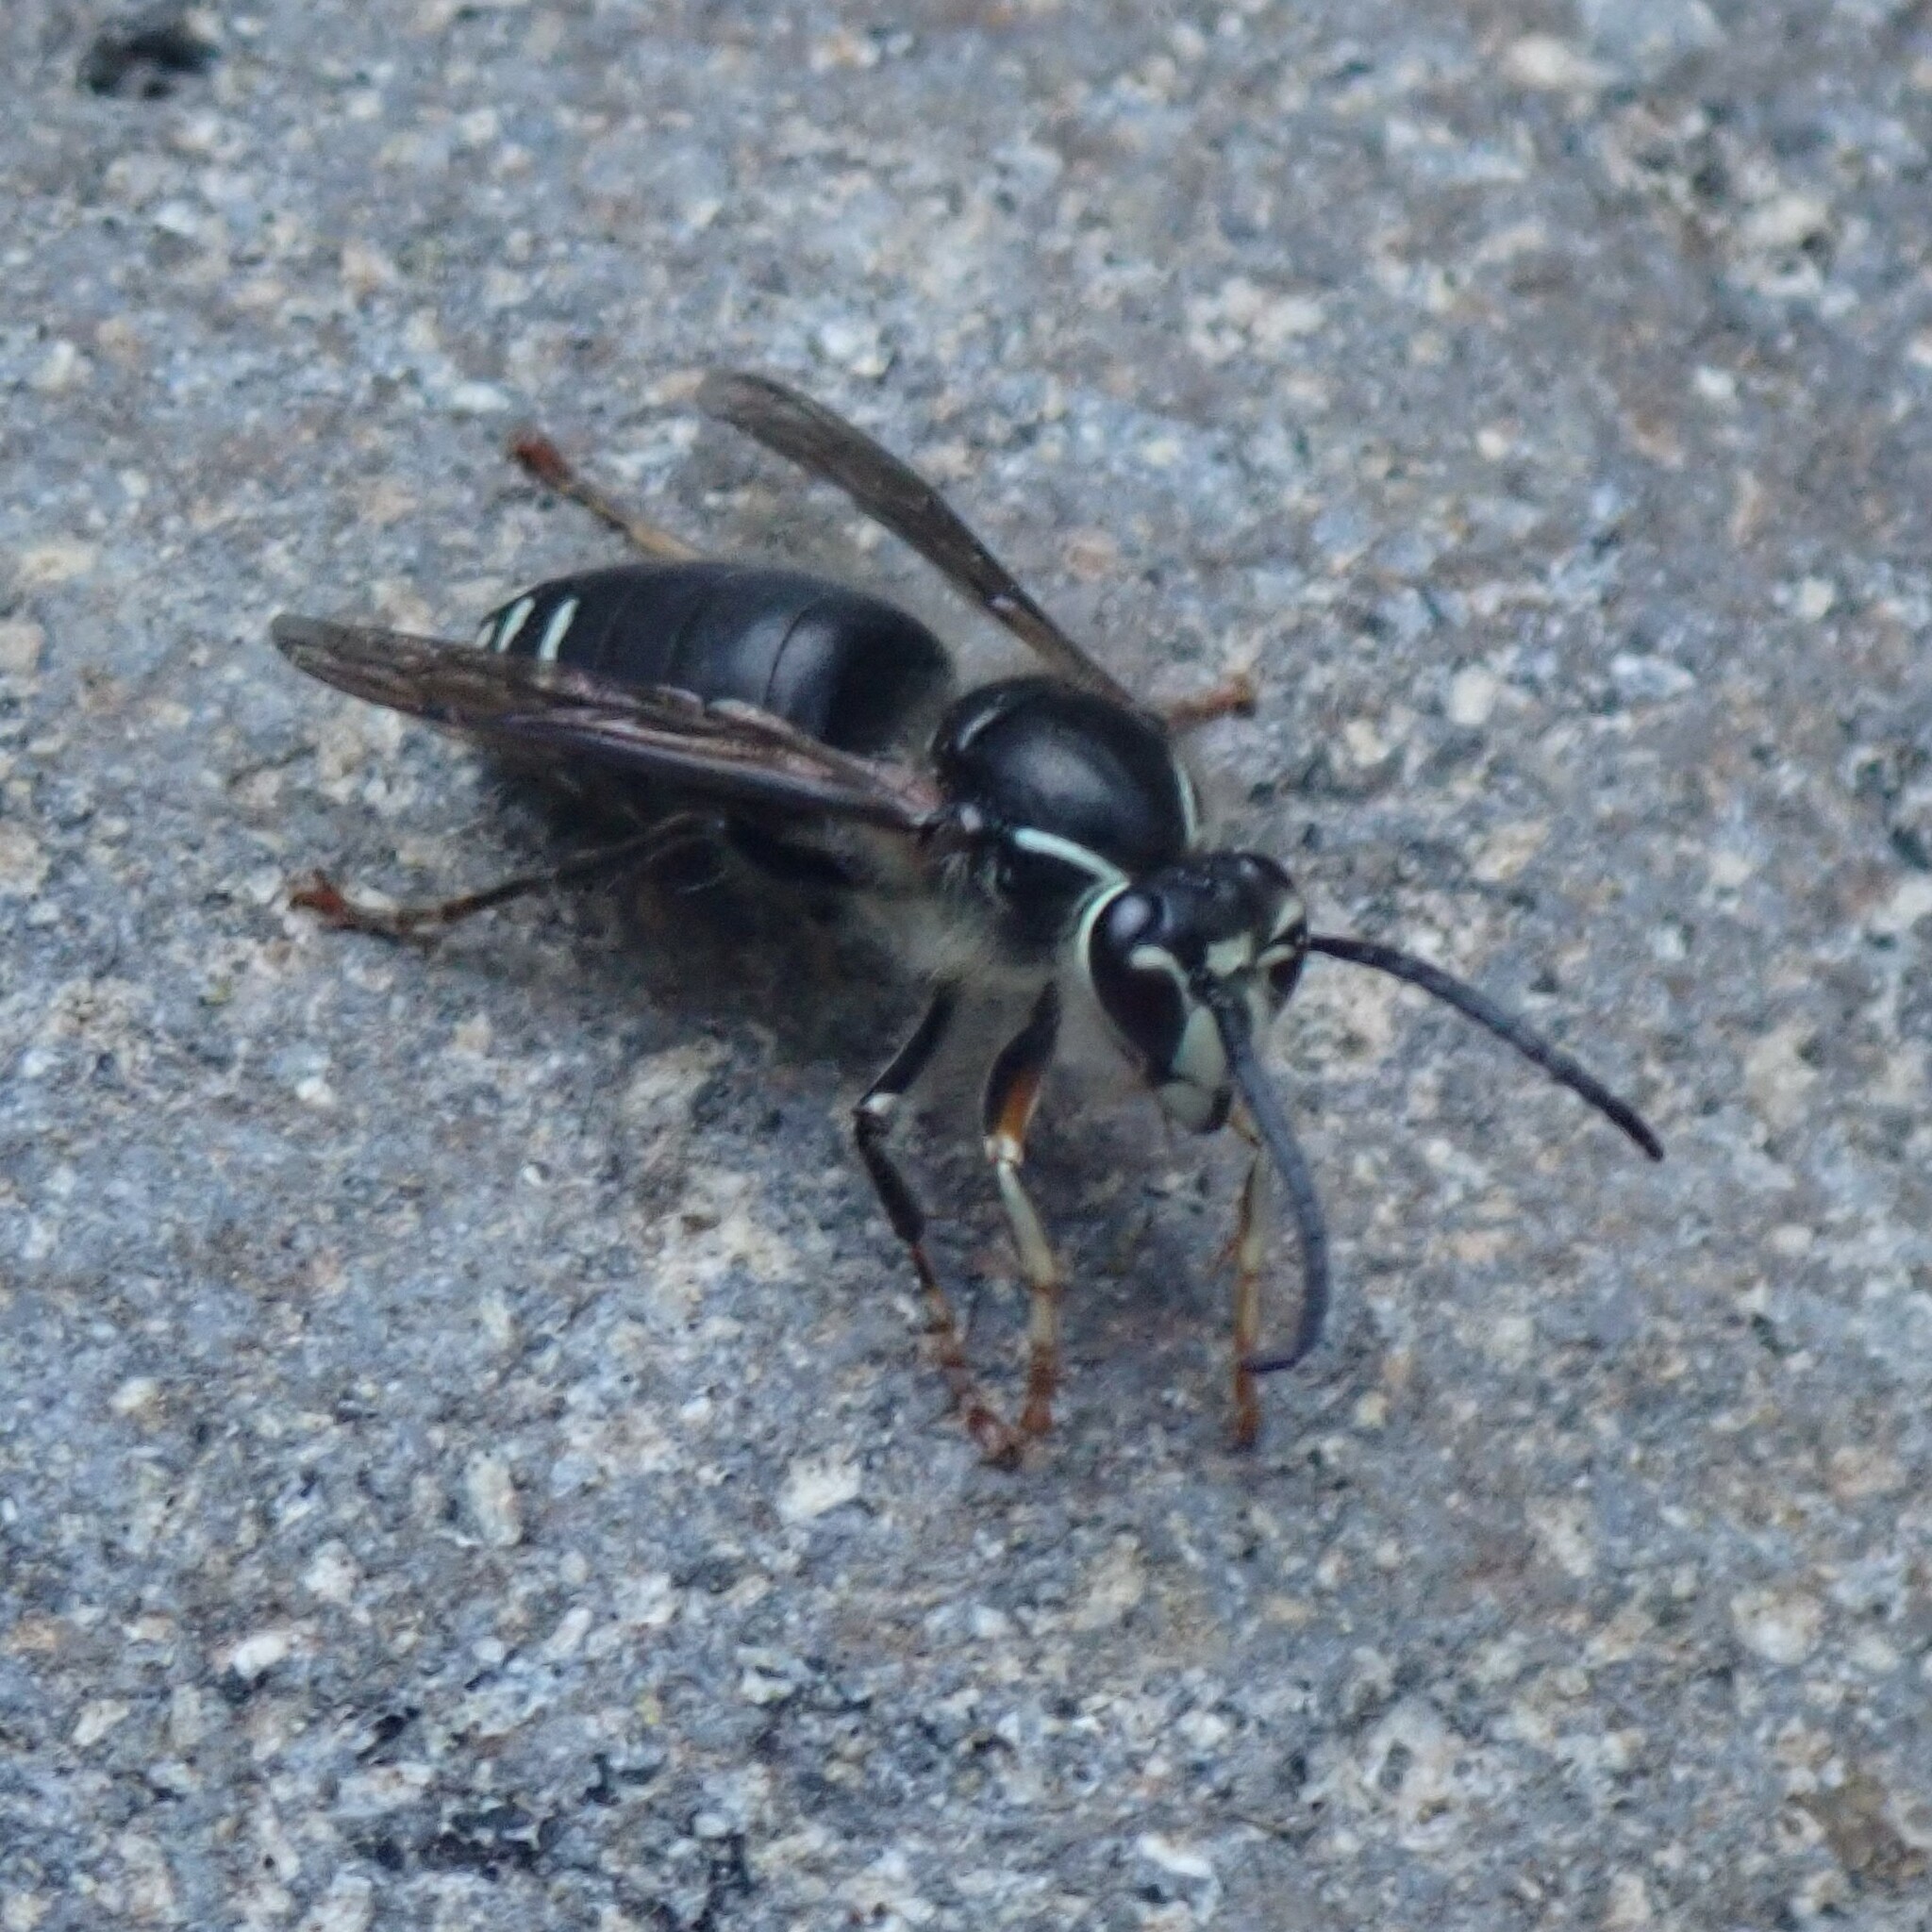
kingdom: Animalia
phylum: Arthropoda
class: Insecta
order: Hymenoptera
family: Vespidae
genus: Dolichovespula
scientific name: Dolichovespula maculata
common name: Bald-faced hornet
